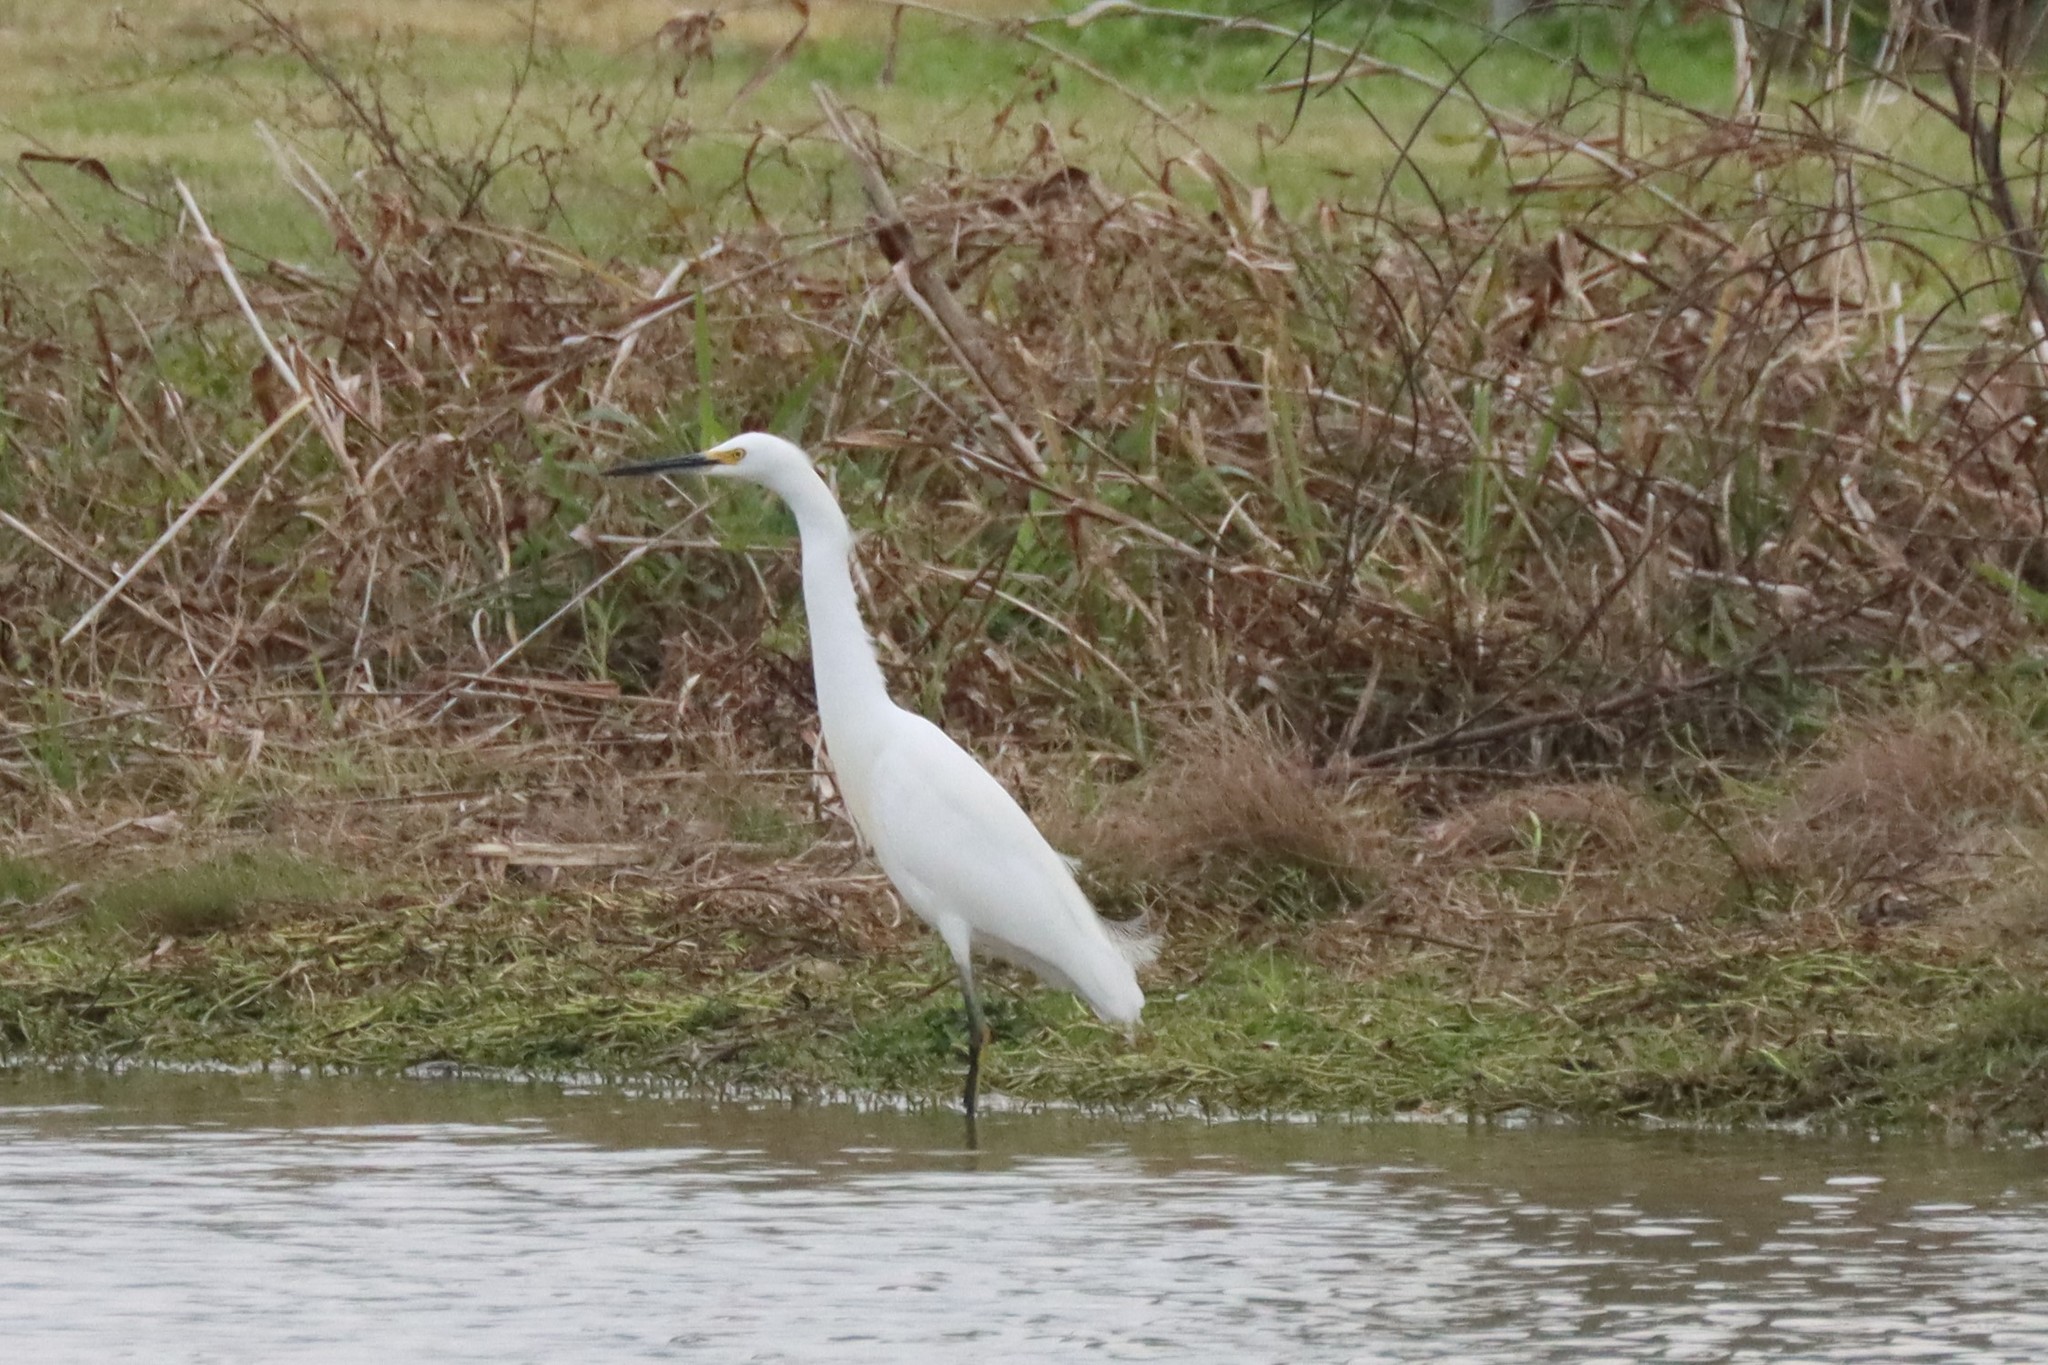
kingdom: Animalia
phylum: Chordata
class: Aves
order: Pelecaniformes
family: Ardeidae
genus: Egretta
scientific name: Egretta thula
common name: Snowy egret
